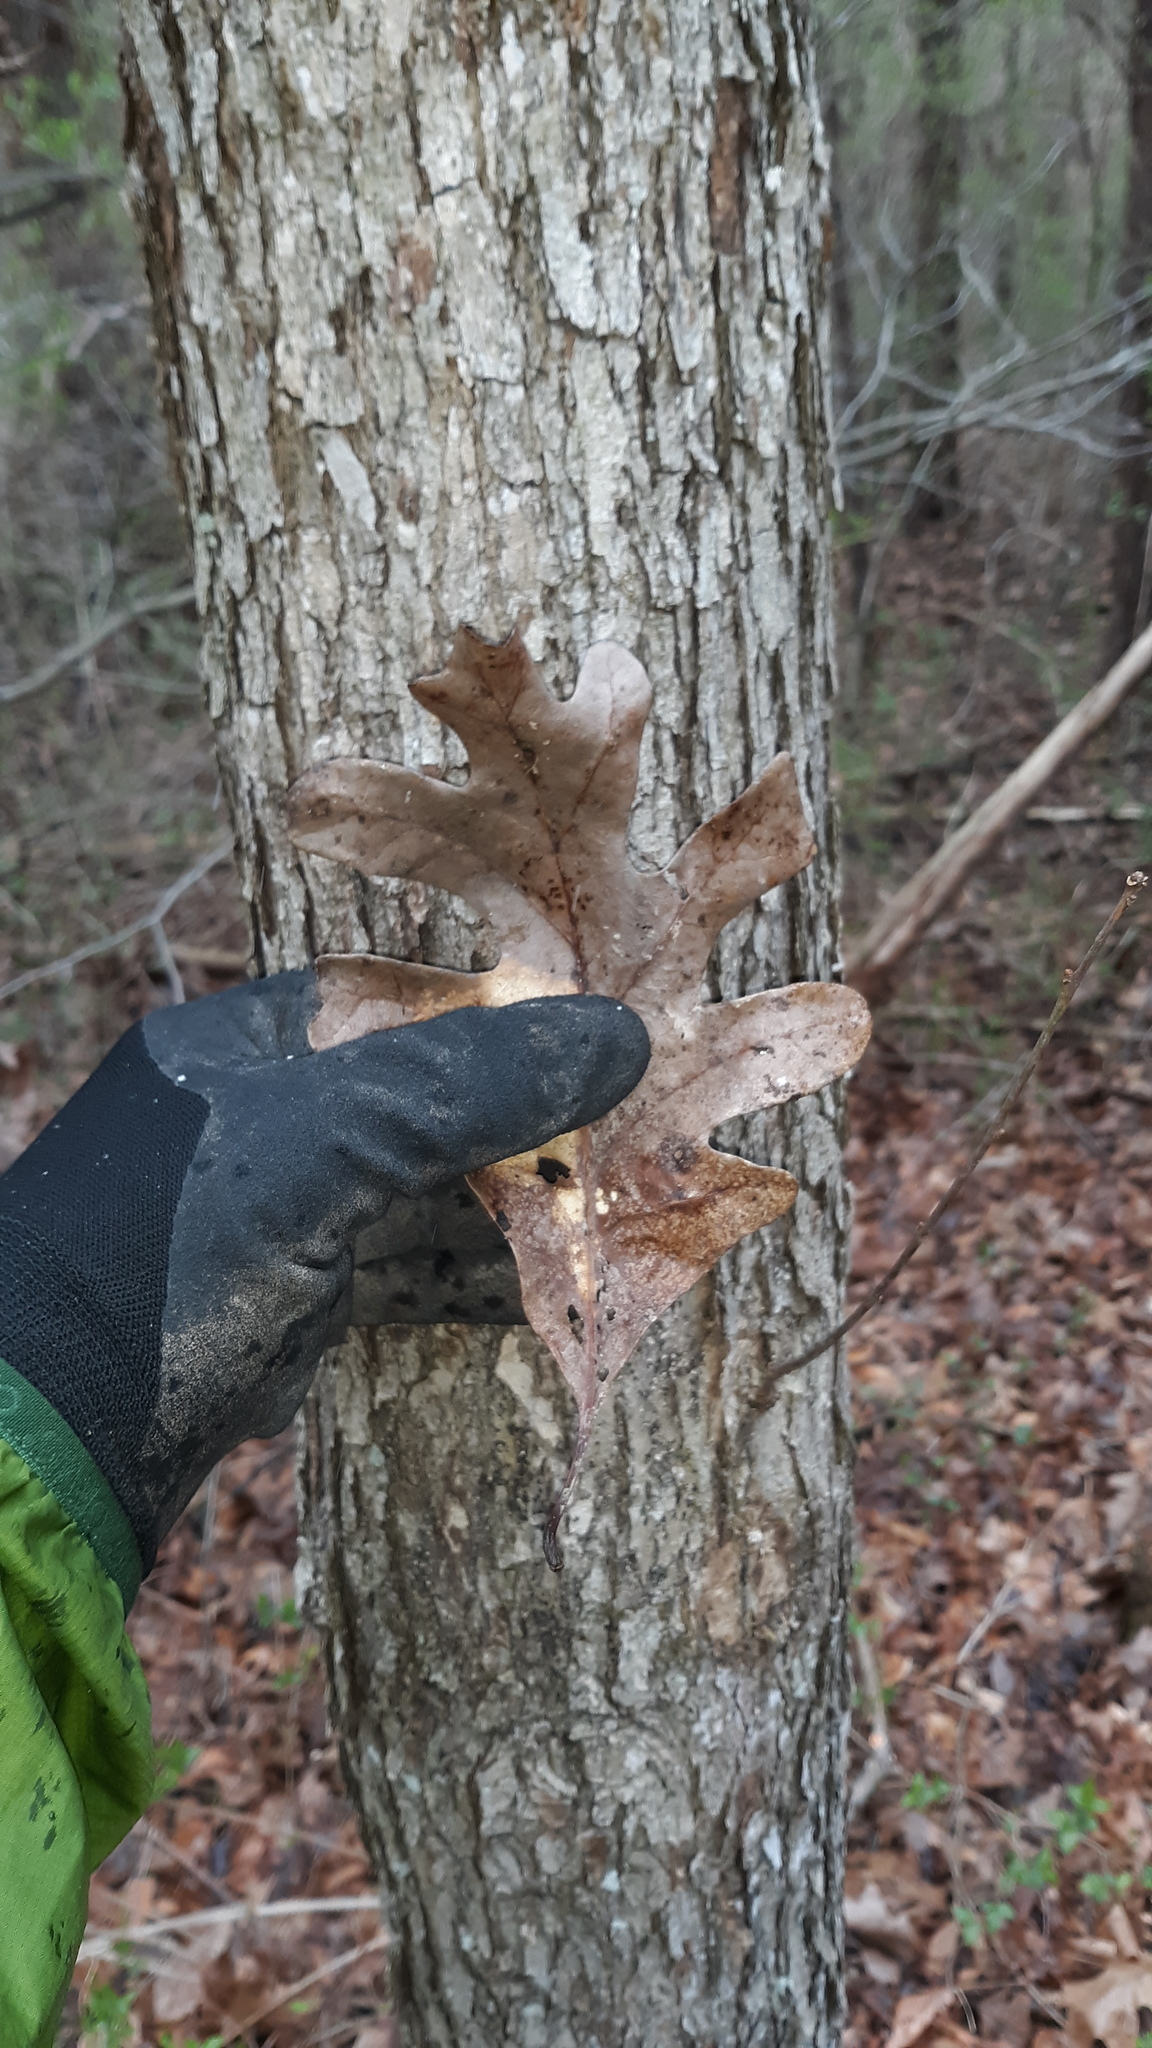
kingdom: Plantae
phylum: Tracheophyta
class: Magnoliopsida
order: Fagales
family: Fagaceae
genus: Quercus
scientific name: Quercus alba
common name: White oak
